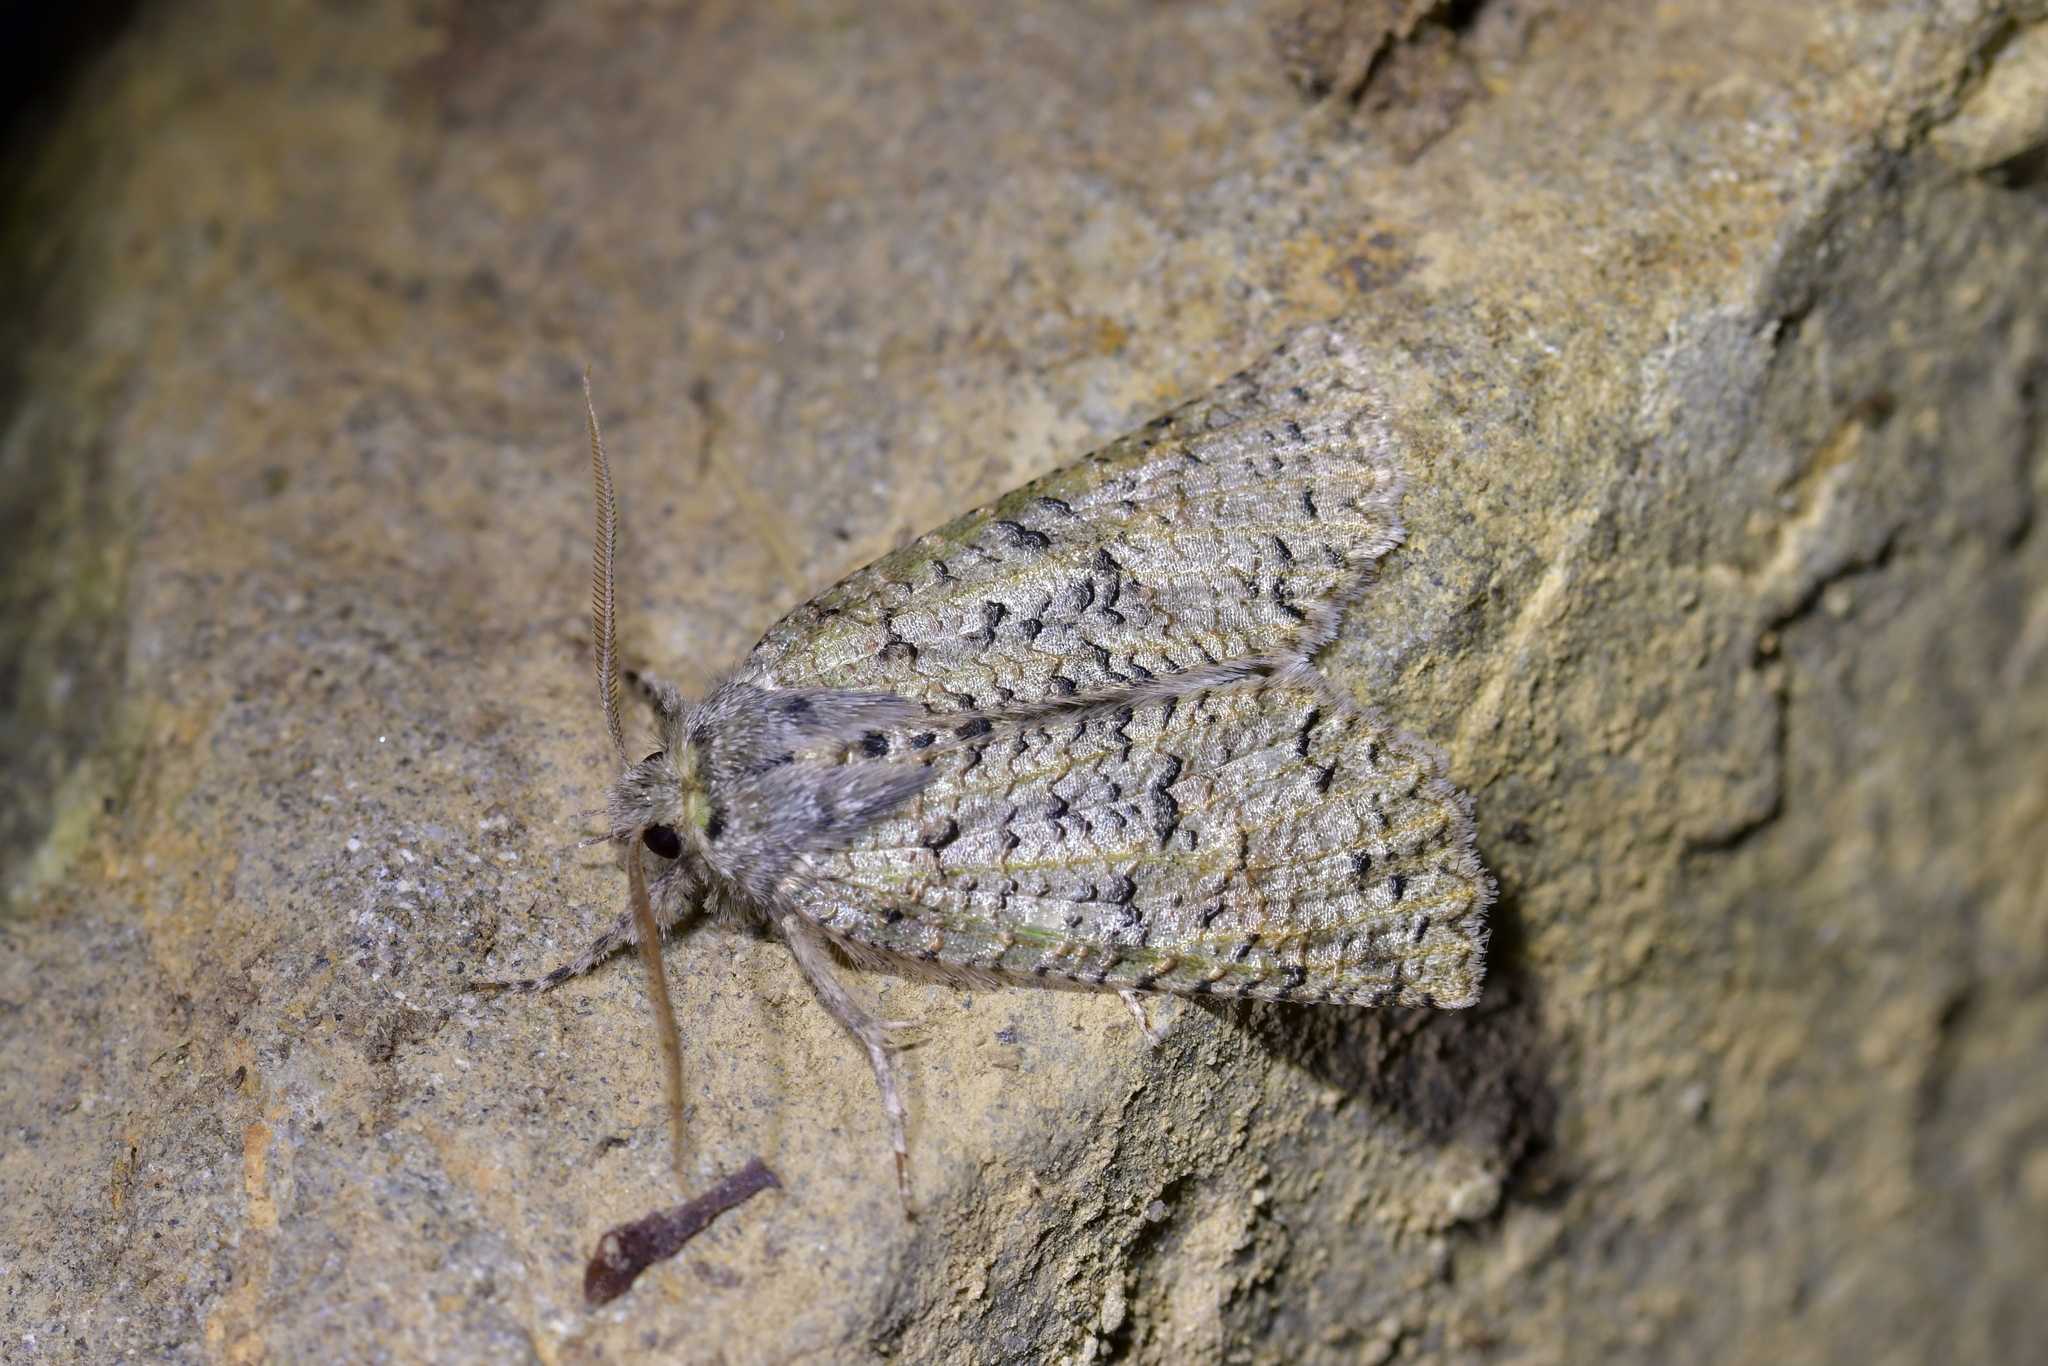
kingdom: Animalia
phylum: Arthropoda
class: Insecta
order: Lepidoptera
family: Geometridae
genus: Declana
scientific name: Declana floccosa
